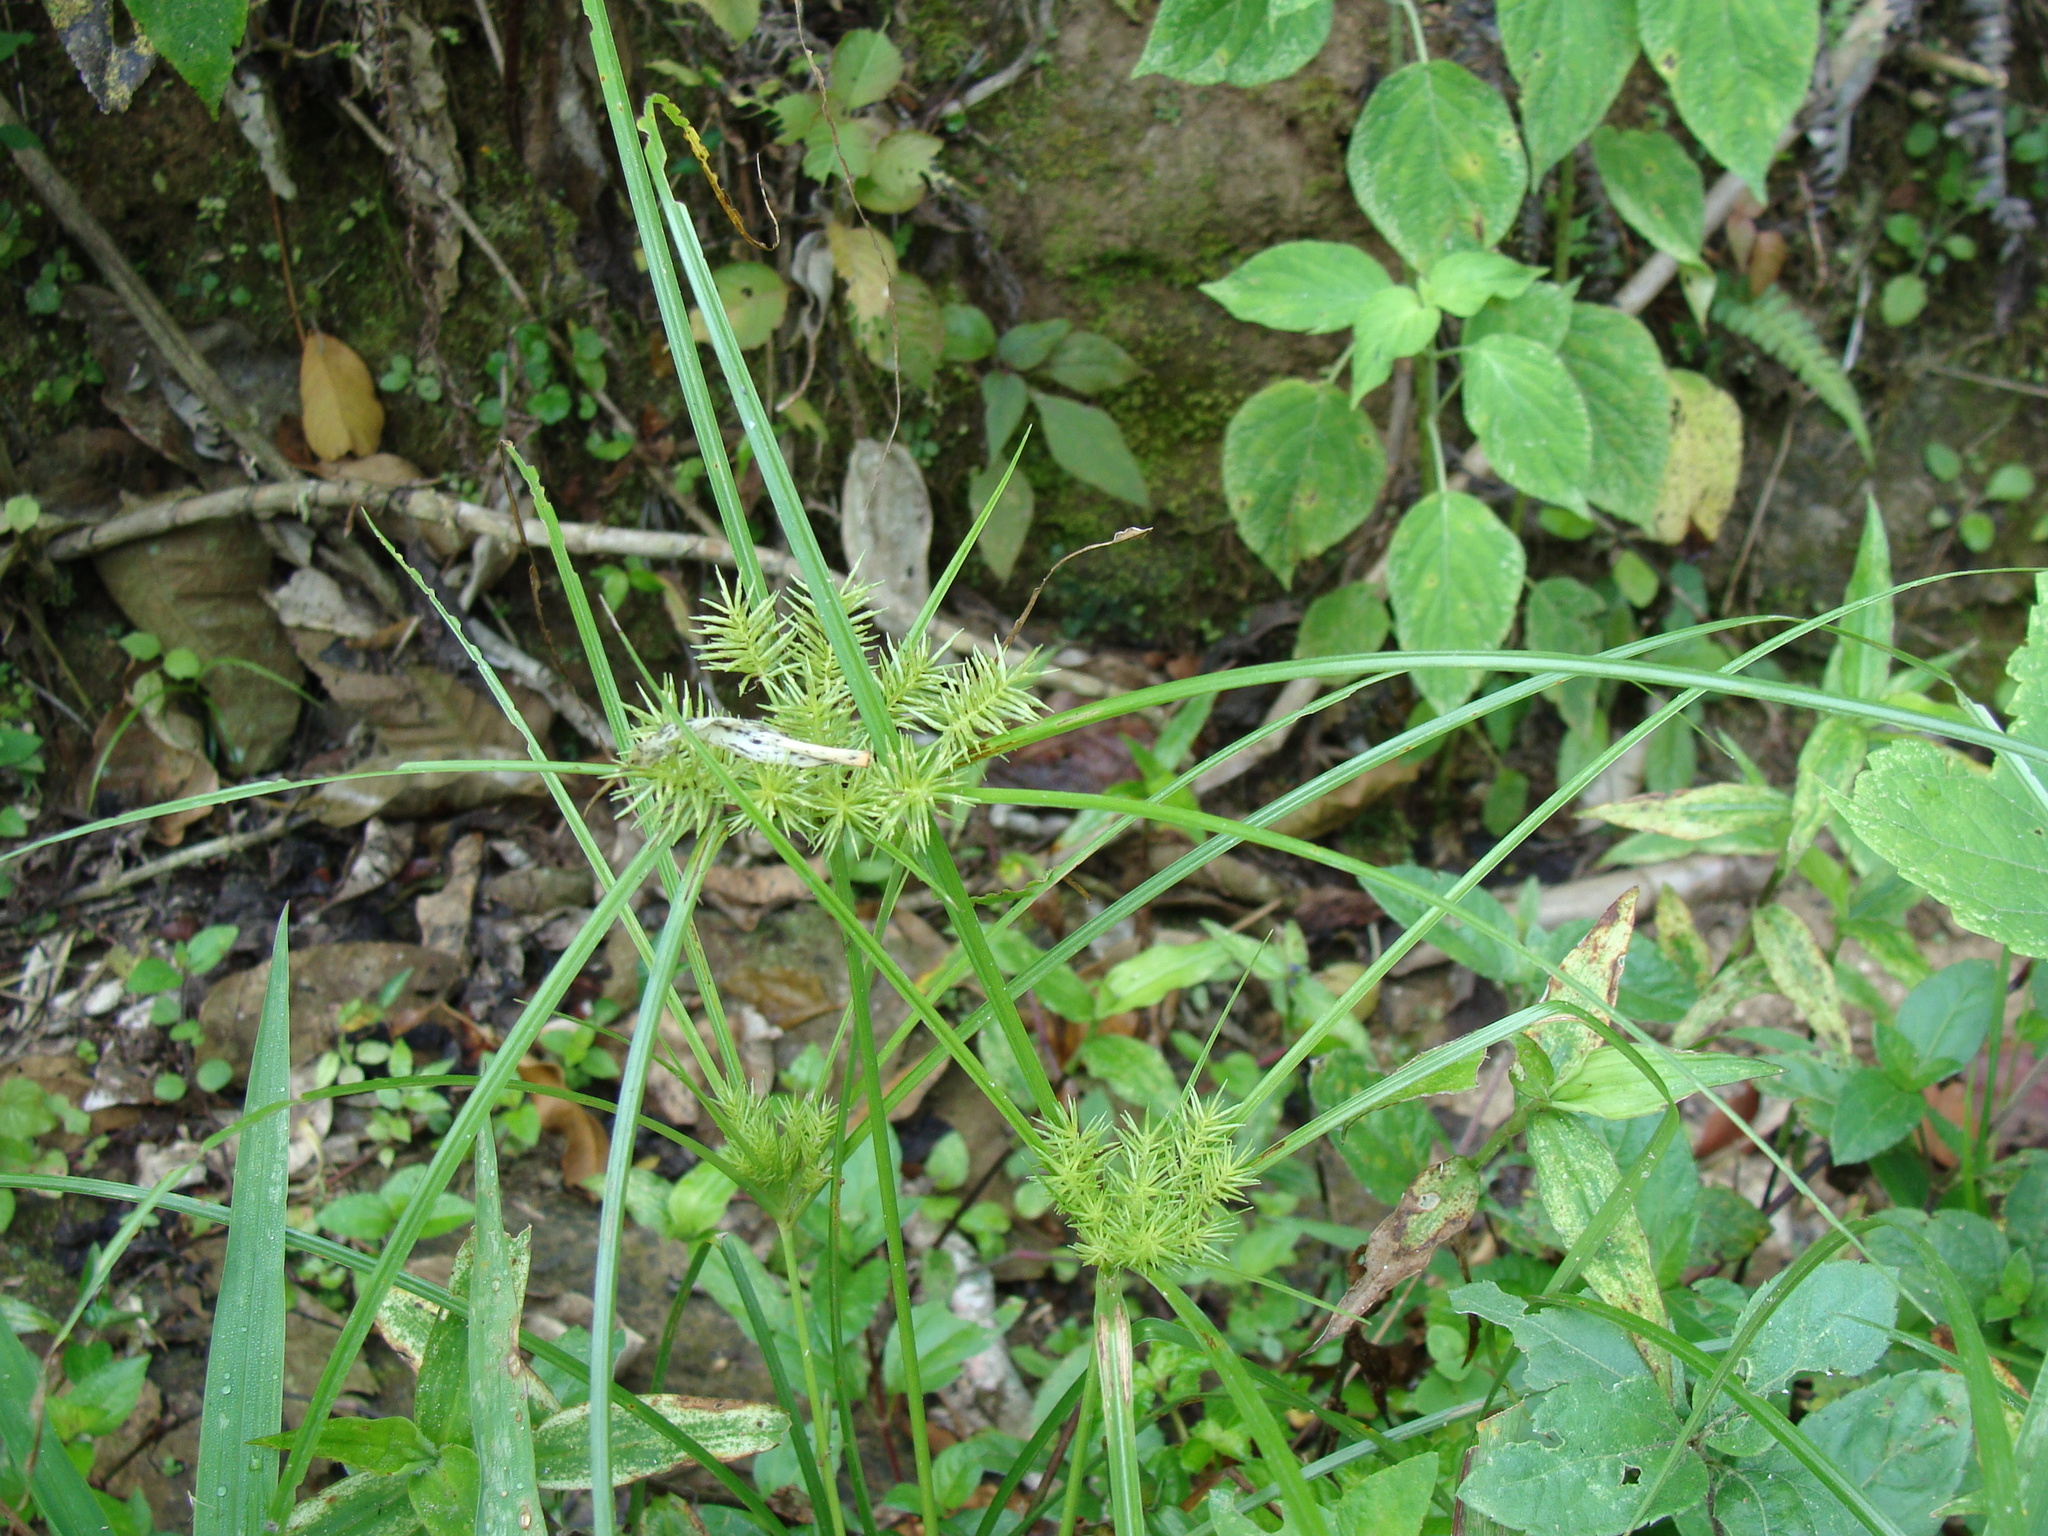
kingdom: Plantae
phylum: Tracheophyta
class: Liliopsida
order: Poales
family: Cyperaceae
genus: Cyperus
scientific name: Cyperus odoratus
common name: Fragrant flatsedge
